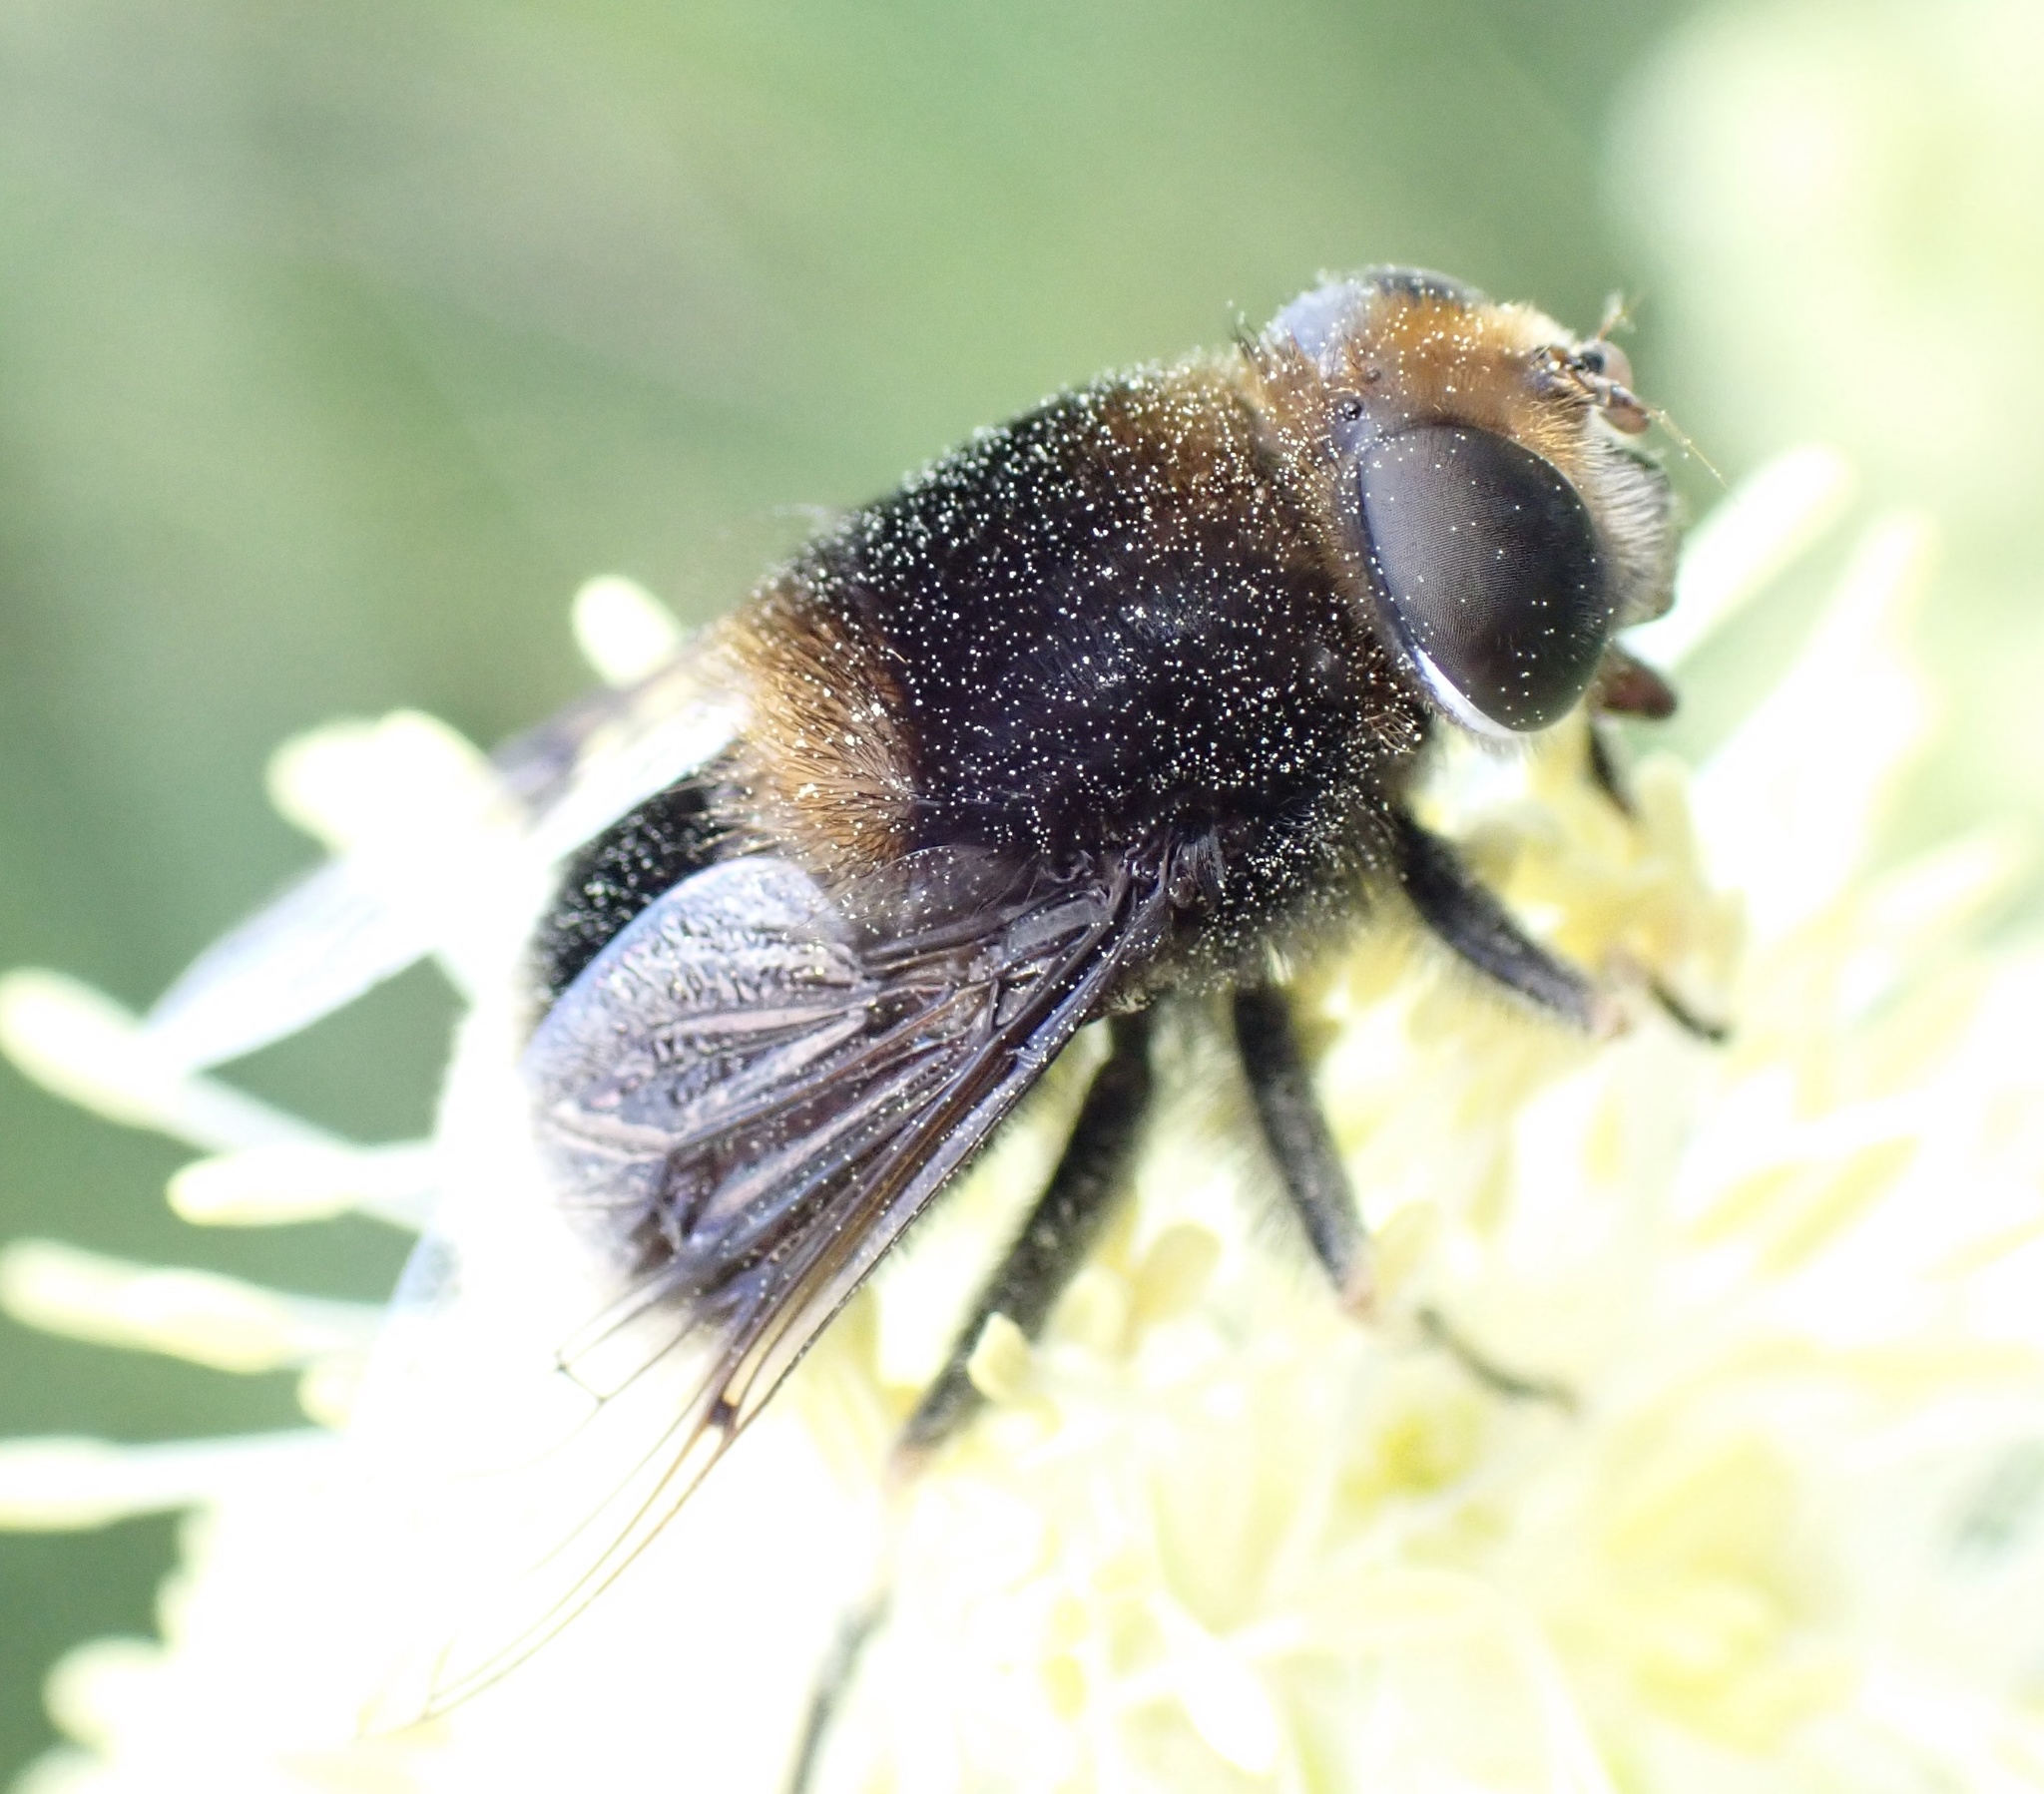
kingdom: Animalia
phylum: Arthropoda
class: Insecta
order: Diptera
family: Syrphidae
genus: Eristalis
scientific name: Eristalis intricaria
